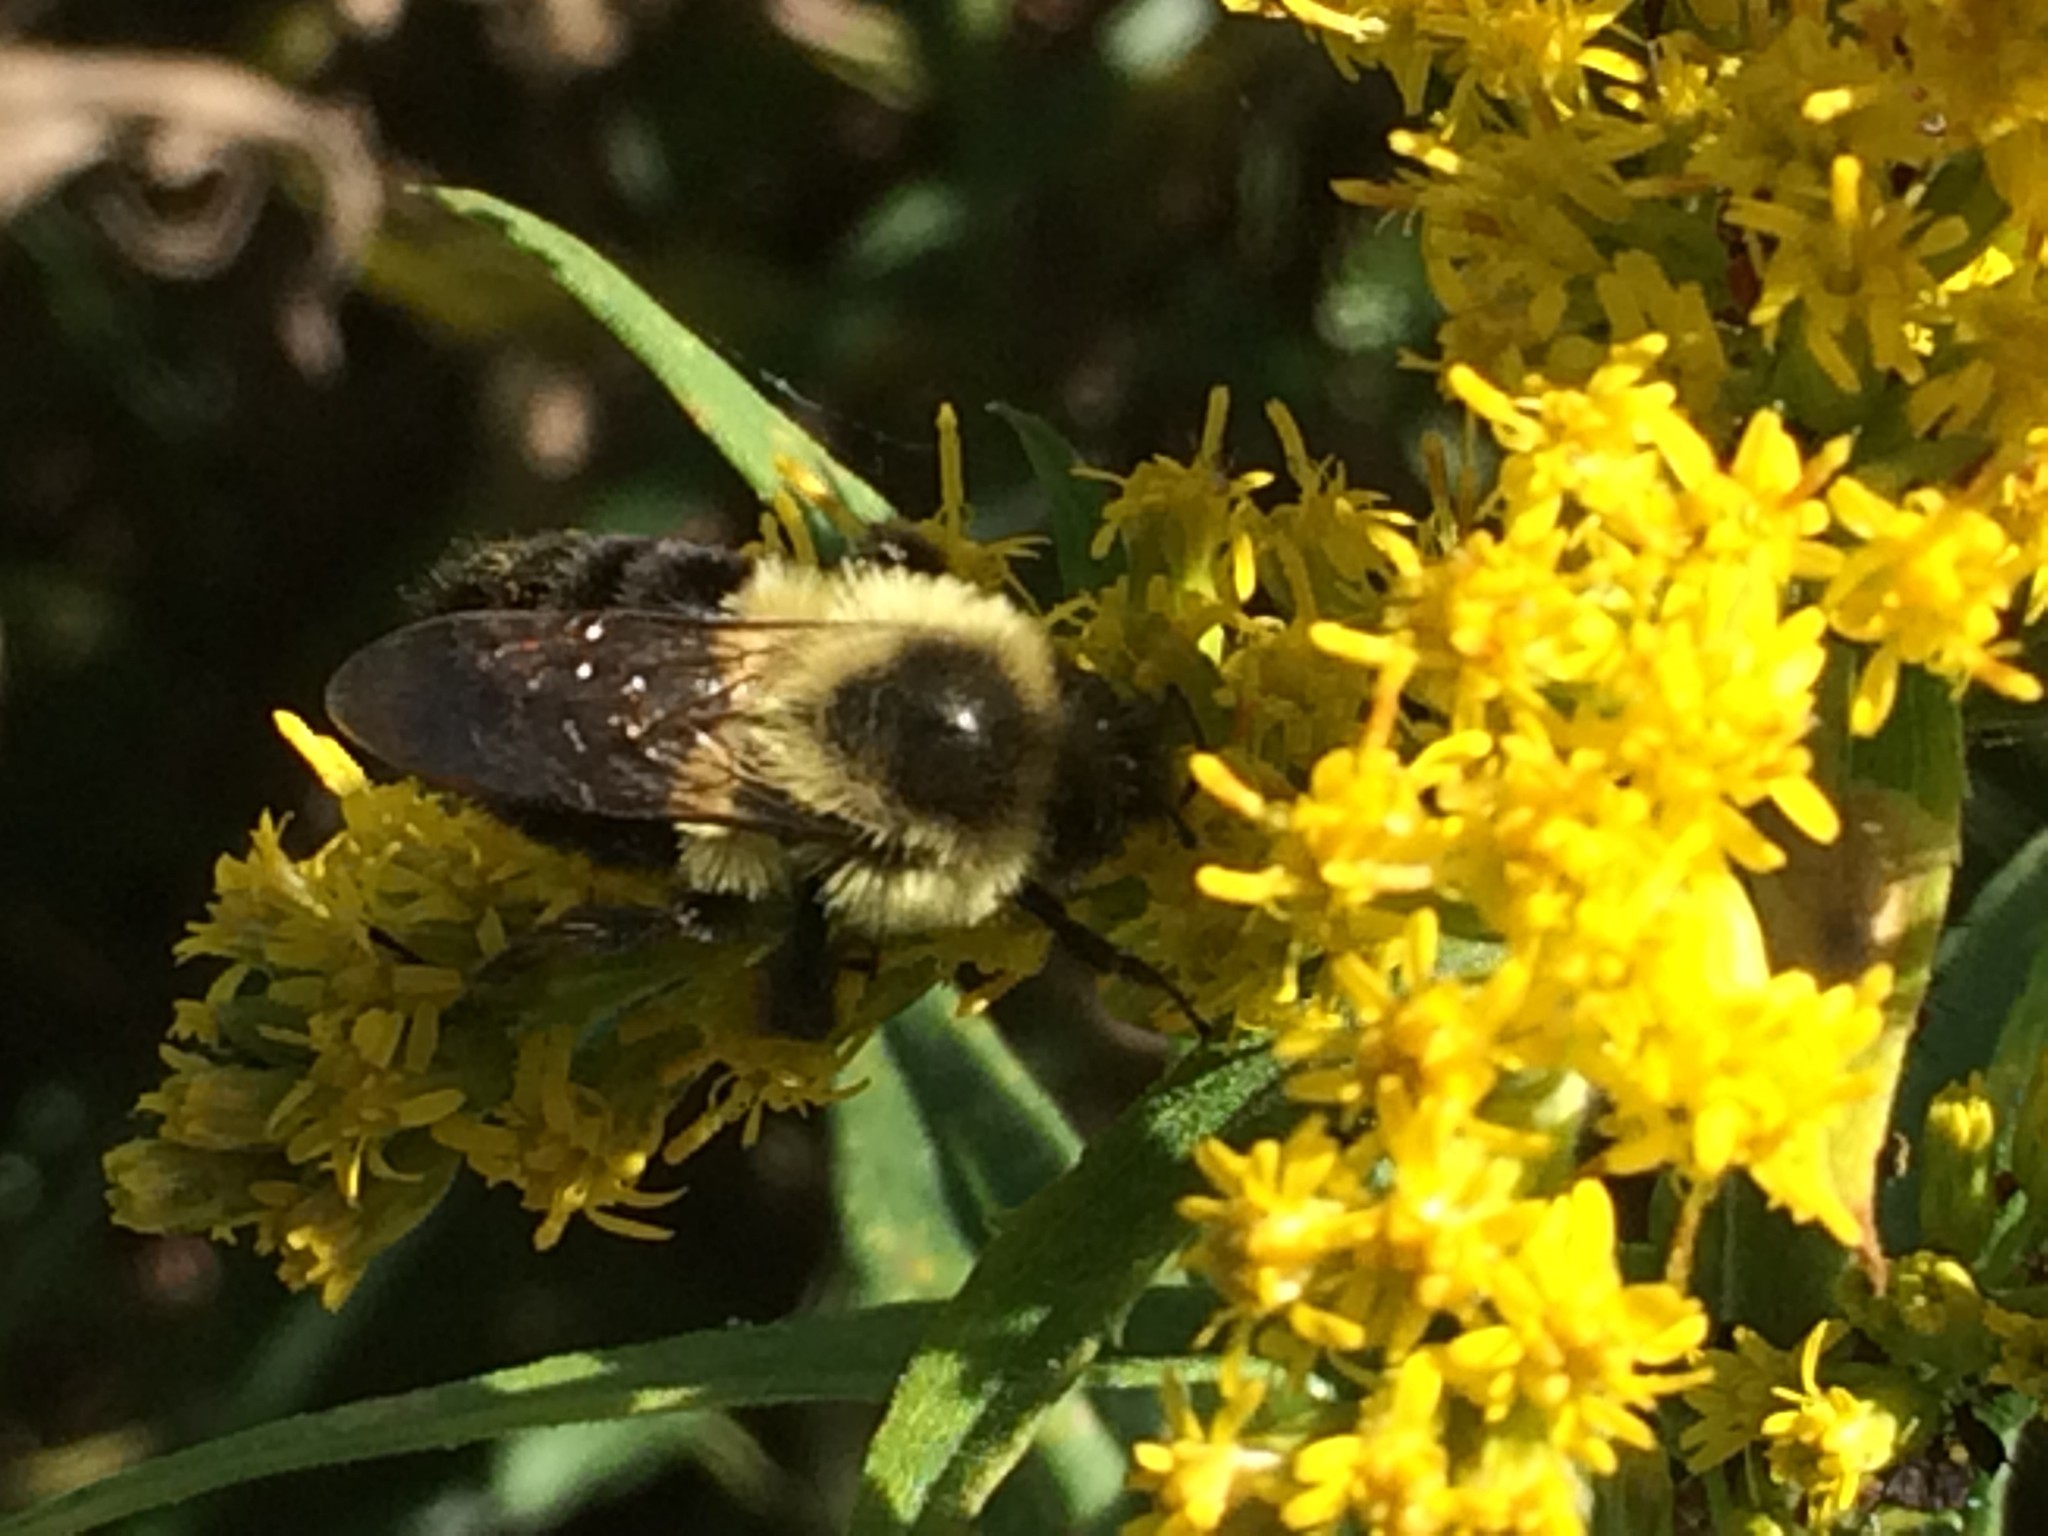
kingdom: Animalia
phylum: Arthropoda
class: Insecta
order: Hymenoptera
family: Apidae
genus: Bombus
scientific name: Bombus impatiens
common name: Common eastern bumble bee
